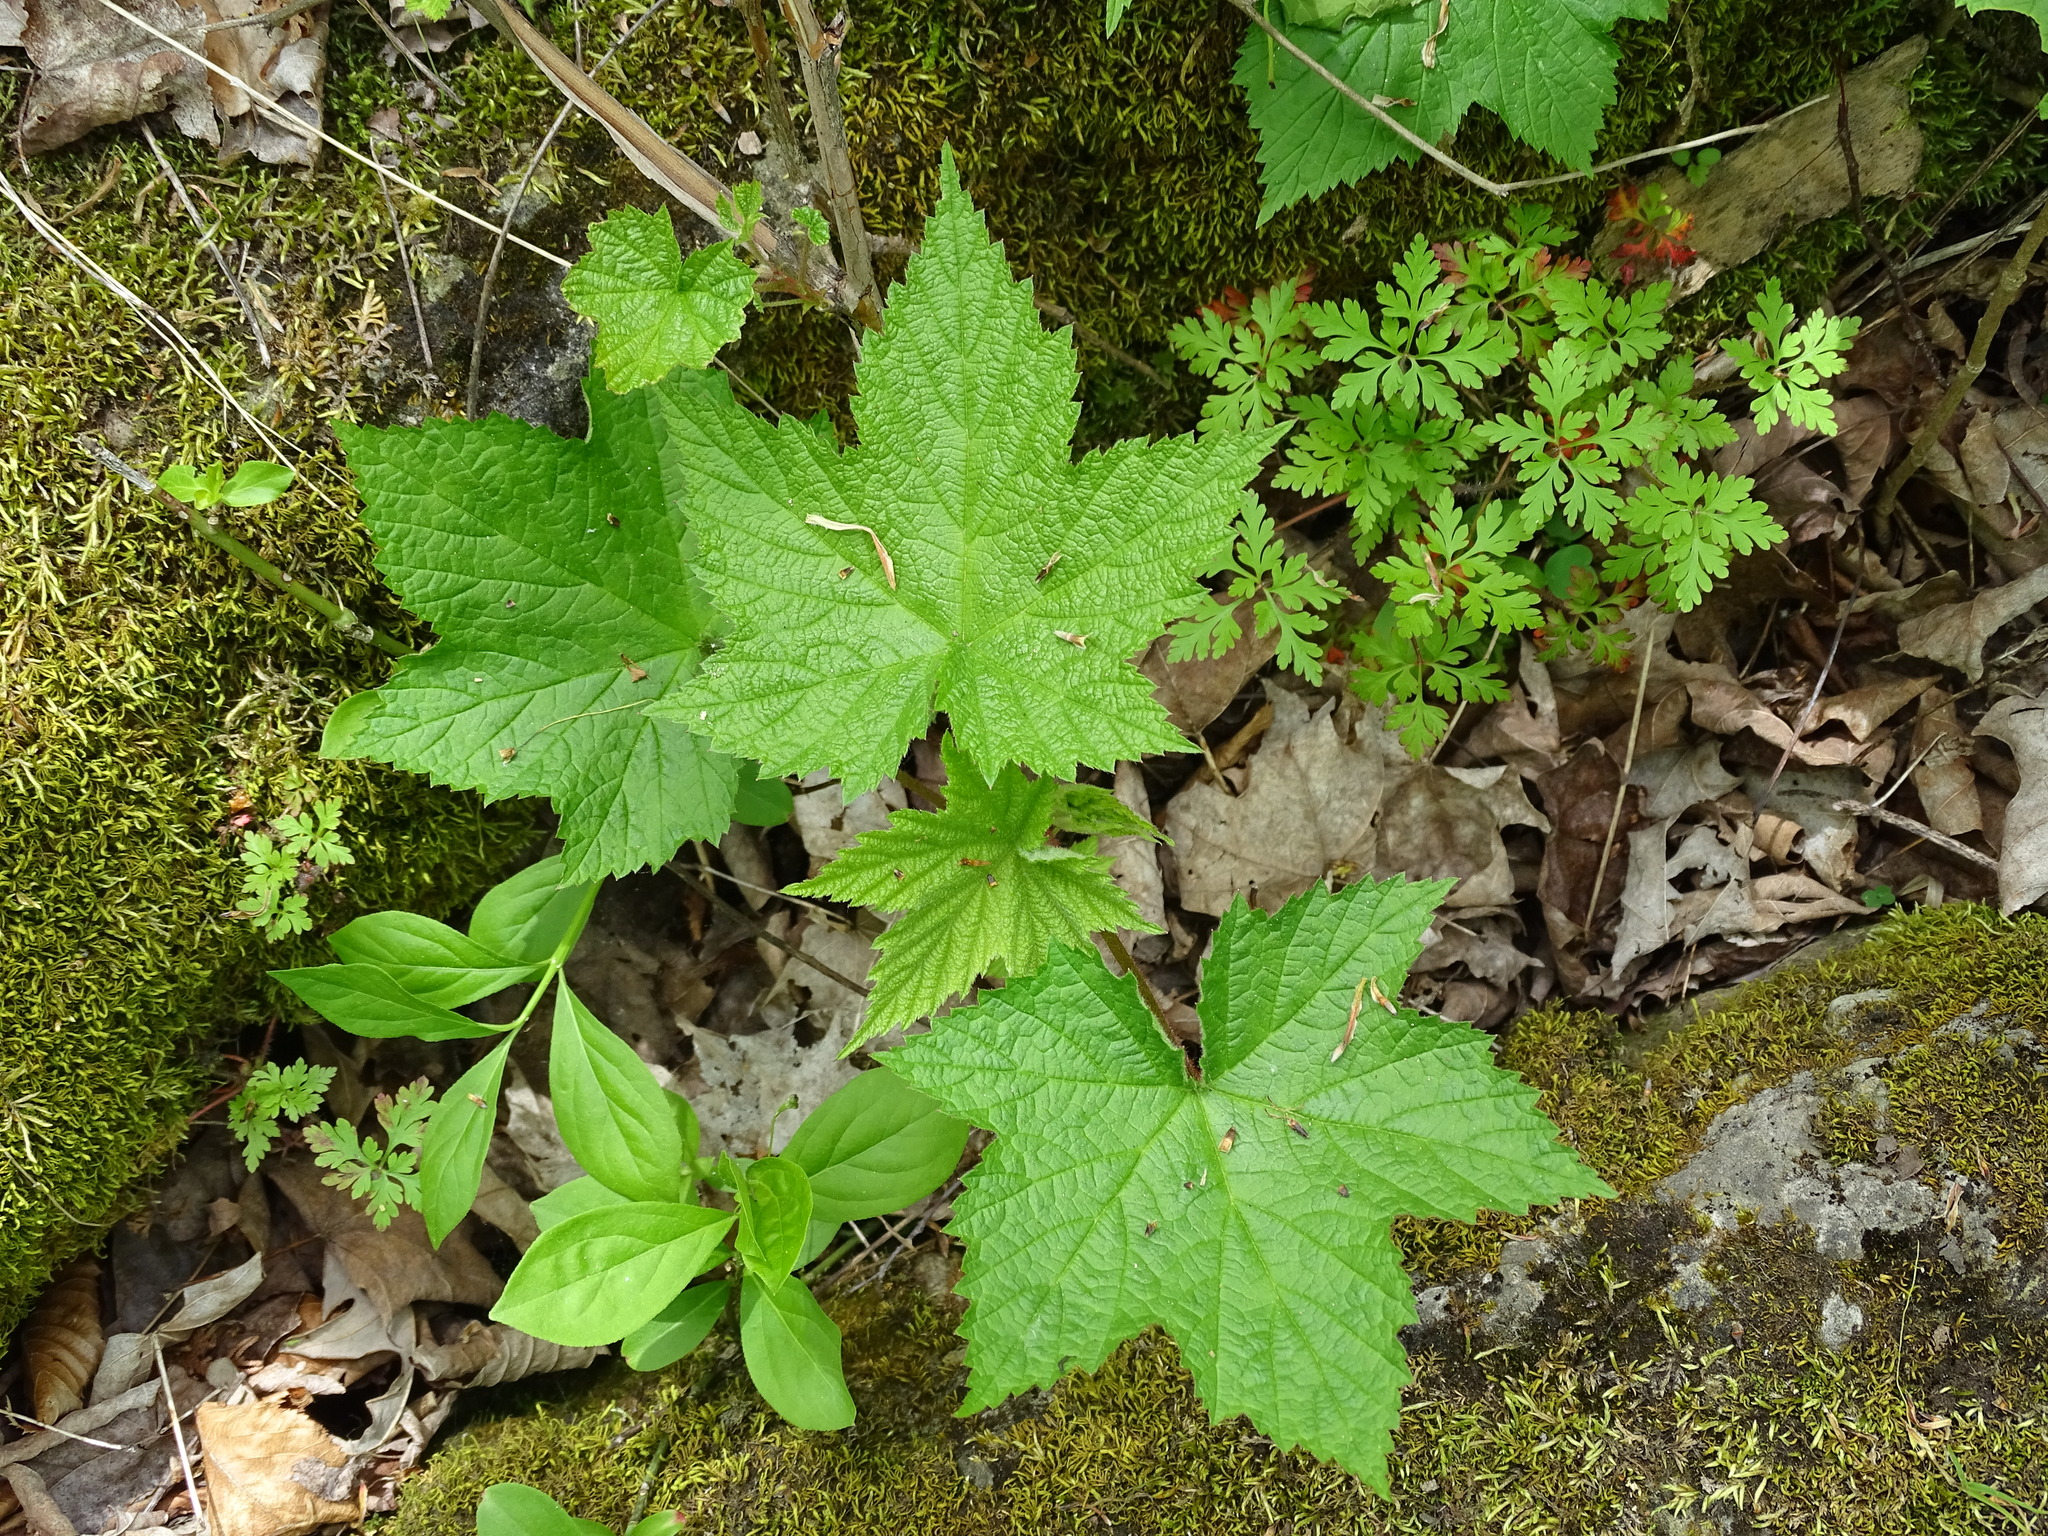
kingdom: Plantae
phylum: Tracheophyta
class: Magnoliopsida
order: Rosales
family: Rosaceae
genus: Rubus
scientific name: Rubus odoratus
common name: Purple-flowered raspberry
